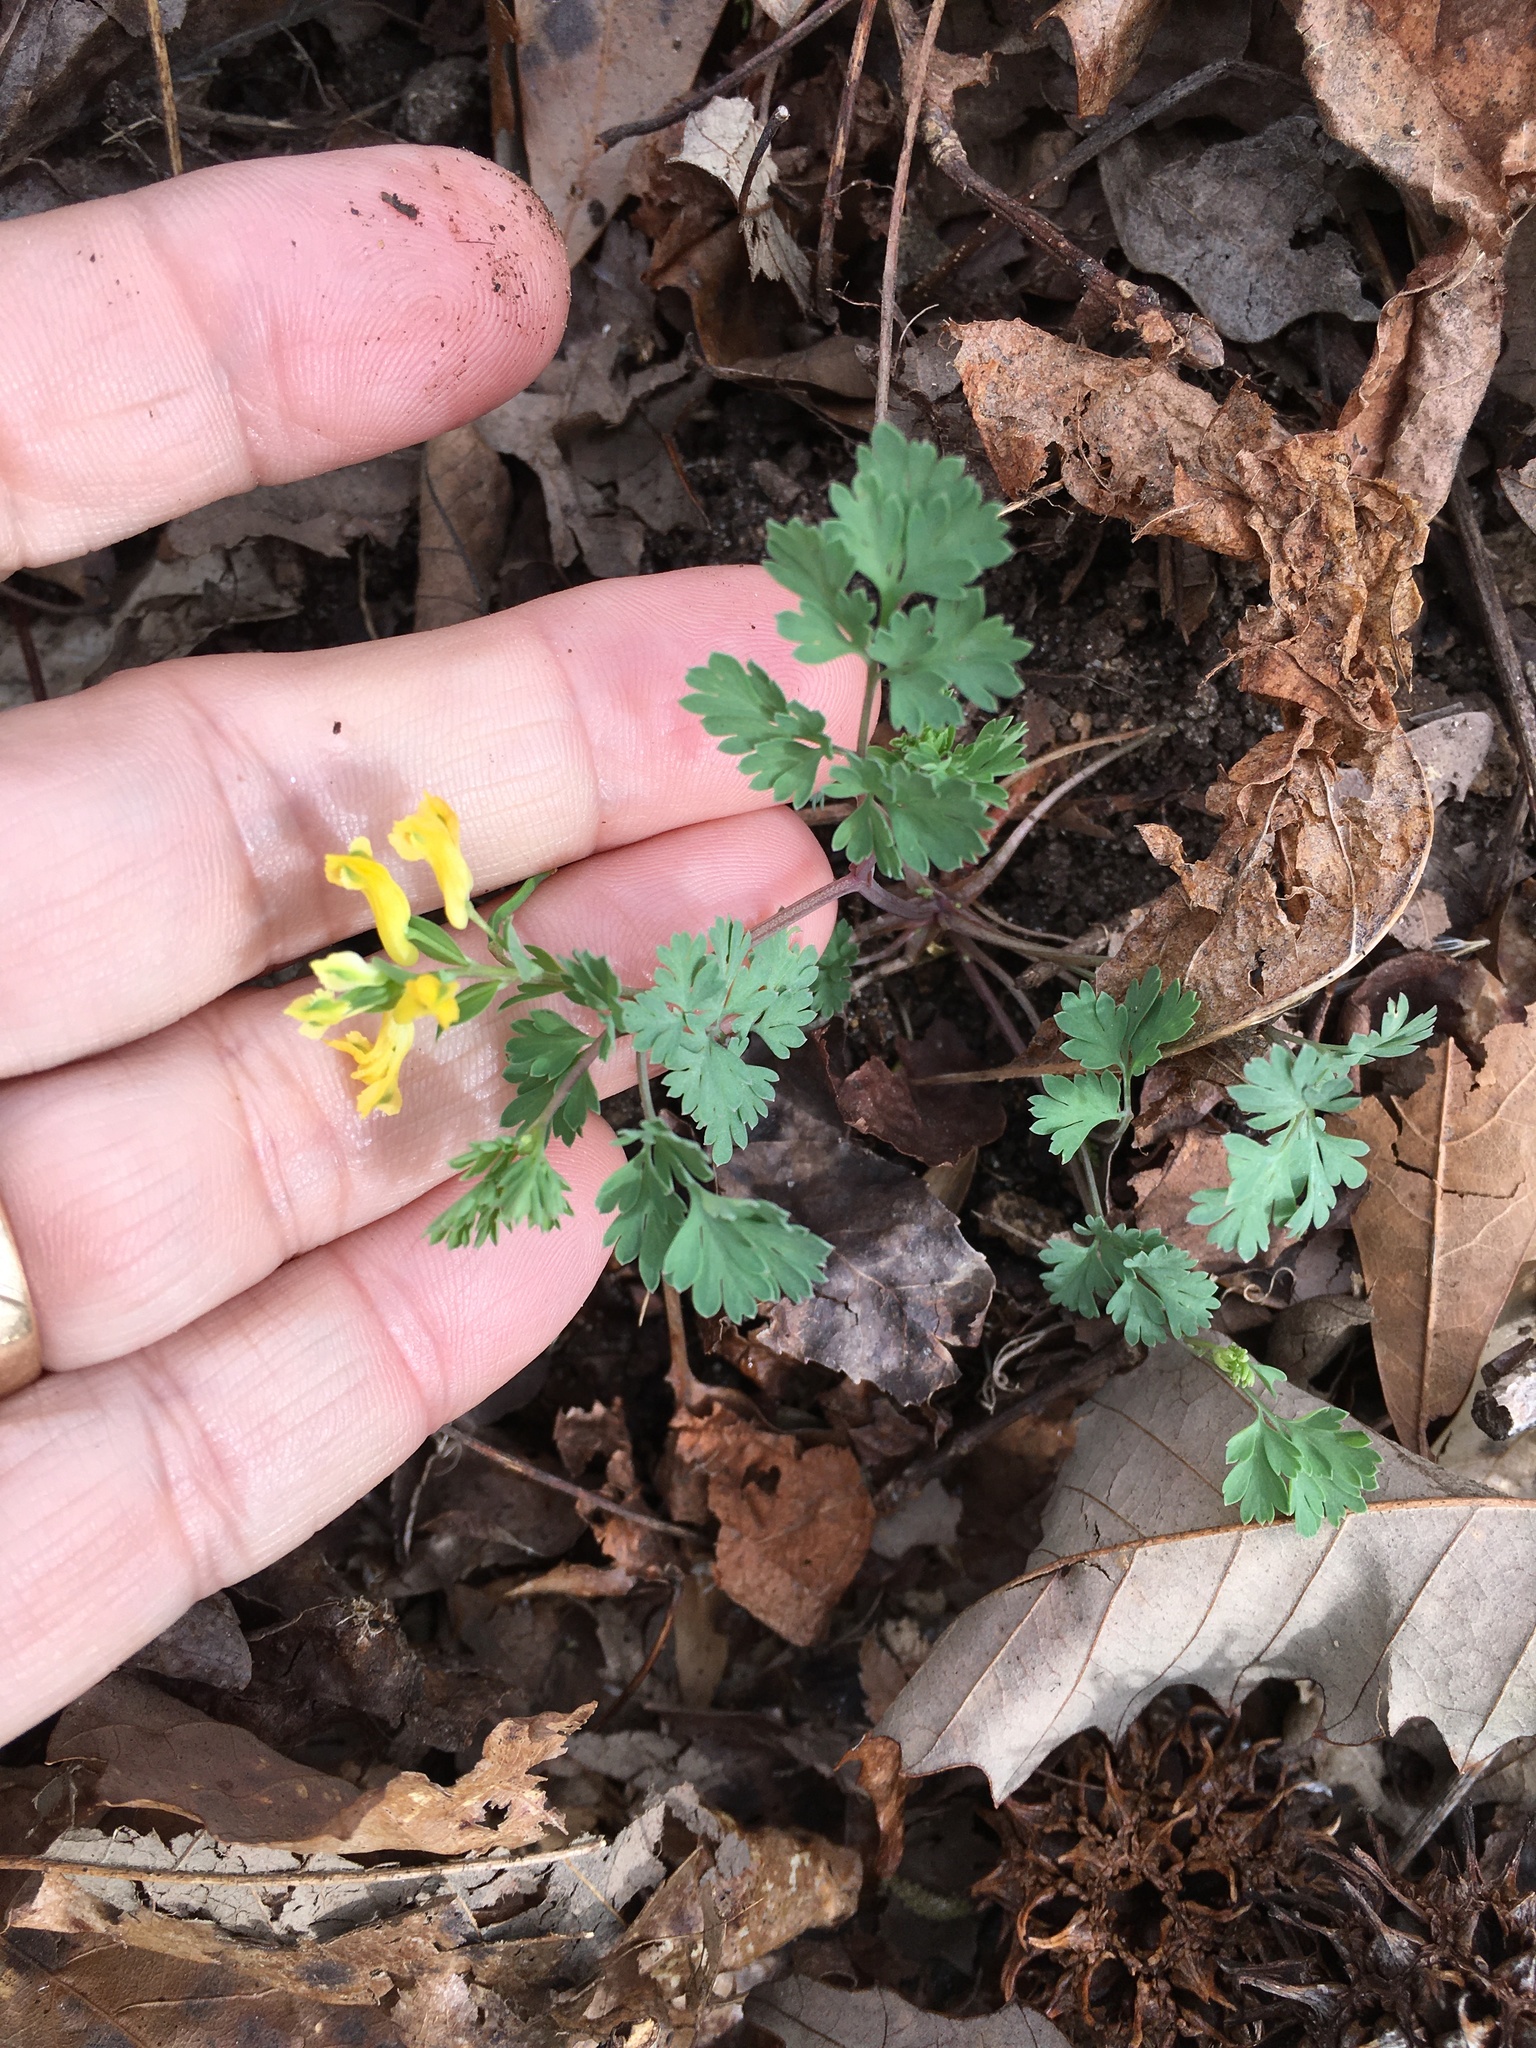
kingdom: Plantae
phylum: Tracheophyta
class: Magnoliopsida
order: Ranunculales
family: Papaveraceae
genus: Corydalis
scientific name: Corydalis flavula
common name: Yellow corydalis
